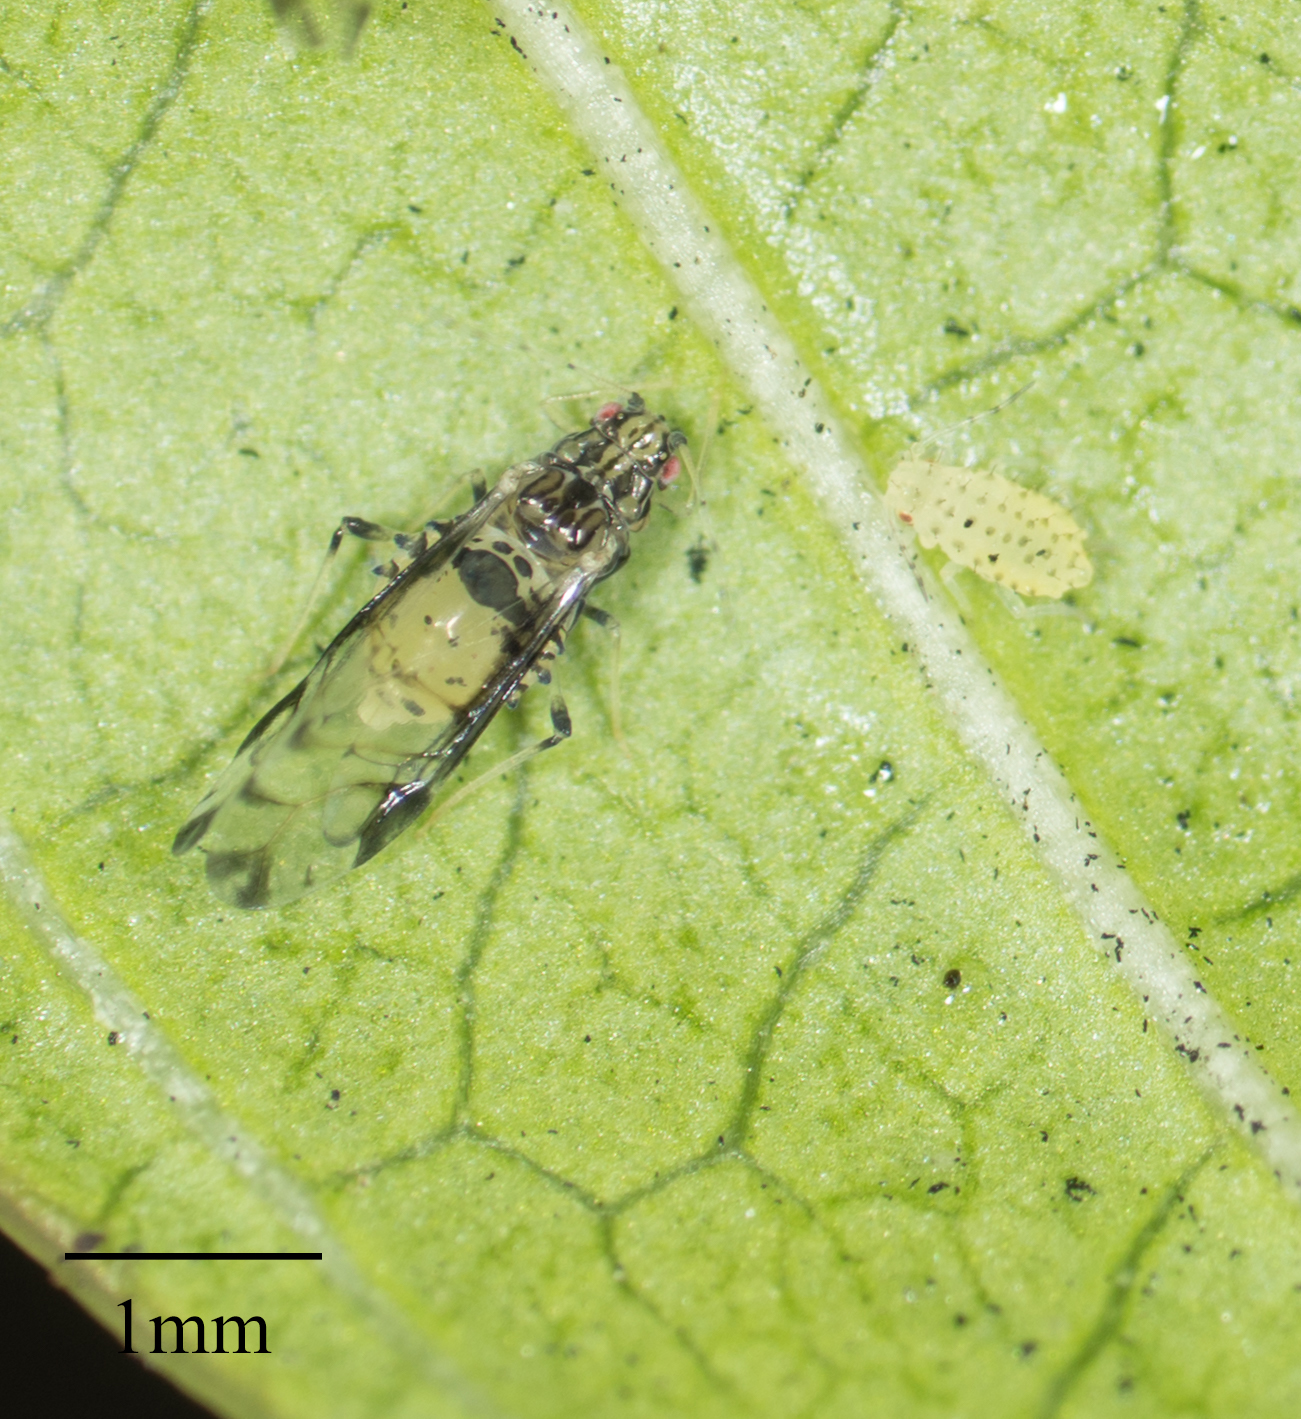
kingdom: Animalia
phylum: Arthropoda
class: Insecta
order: Hemiptera
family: Aphididae
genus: Sarucallis
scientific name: Sarucallis kahawaluokalani
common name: Crapemyrtle aphid
